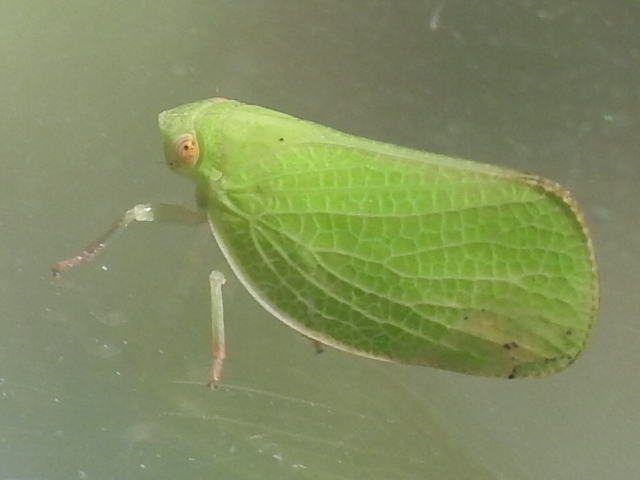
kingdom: Animalia
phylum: Arthropoda
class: Insecta
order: Hemiptera
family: Acanaloniidae
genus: Acanalonia
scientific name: Acanalonia conica
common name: Green cone-headed planthopper
